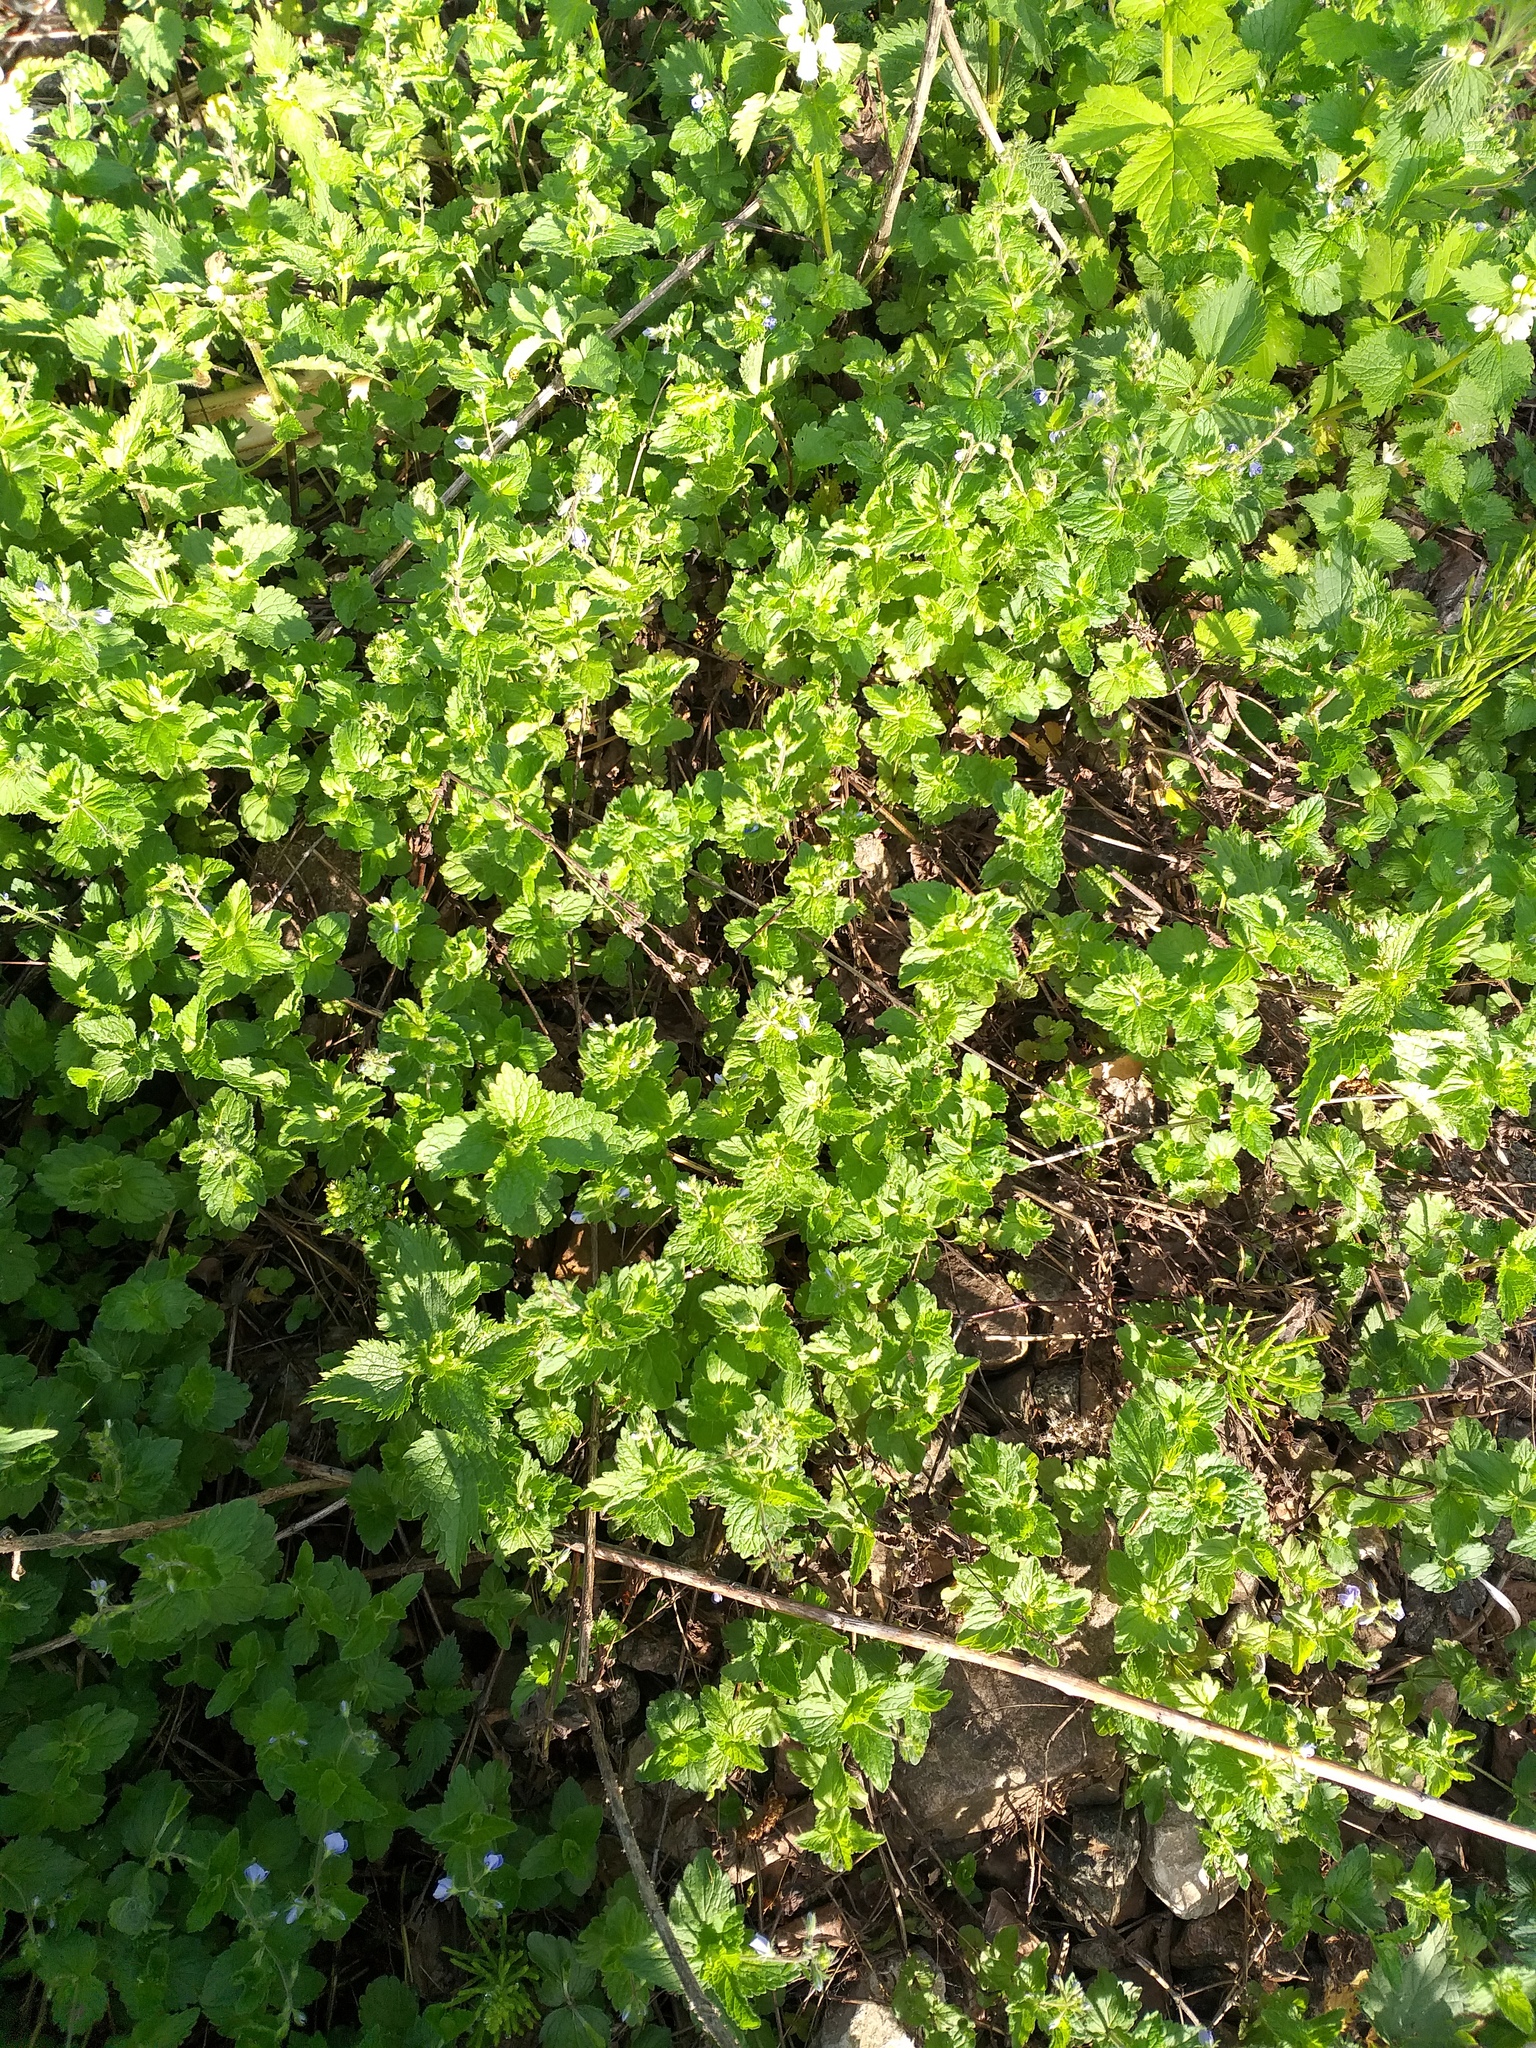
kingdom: Plantae
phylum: Tracheophyta
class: Magnoliopsida
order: Lamiales
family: Plantaginaceae
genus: Veronica
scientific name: Veronica chamaedrys
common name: Germander speedwell
